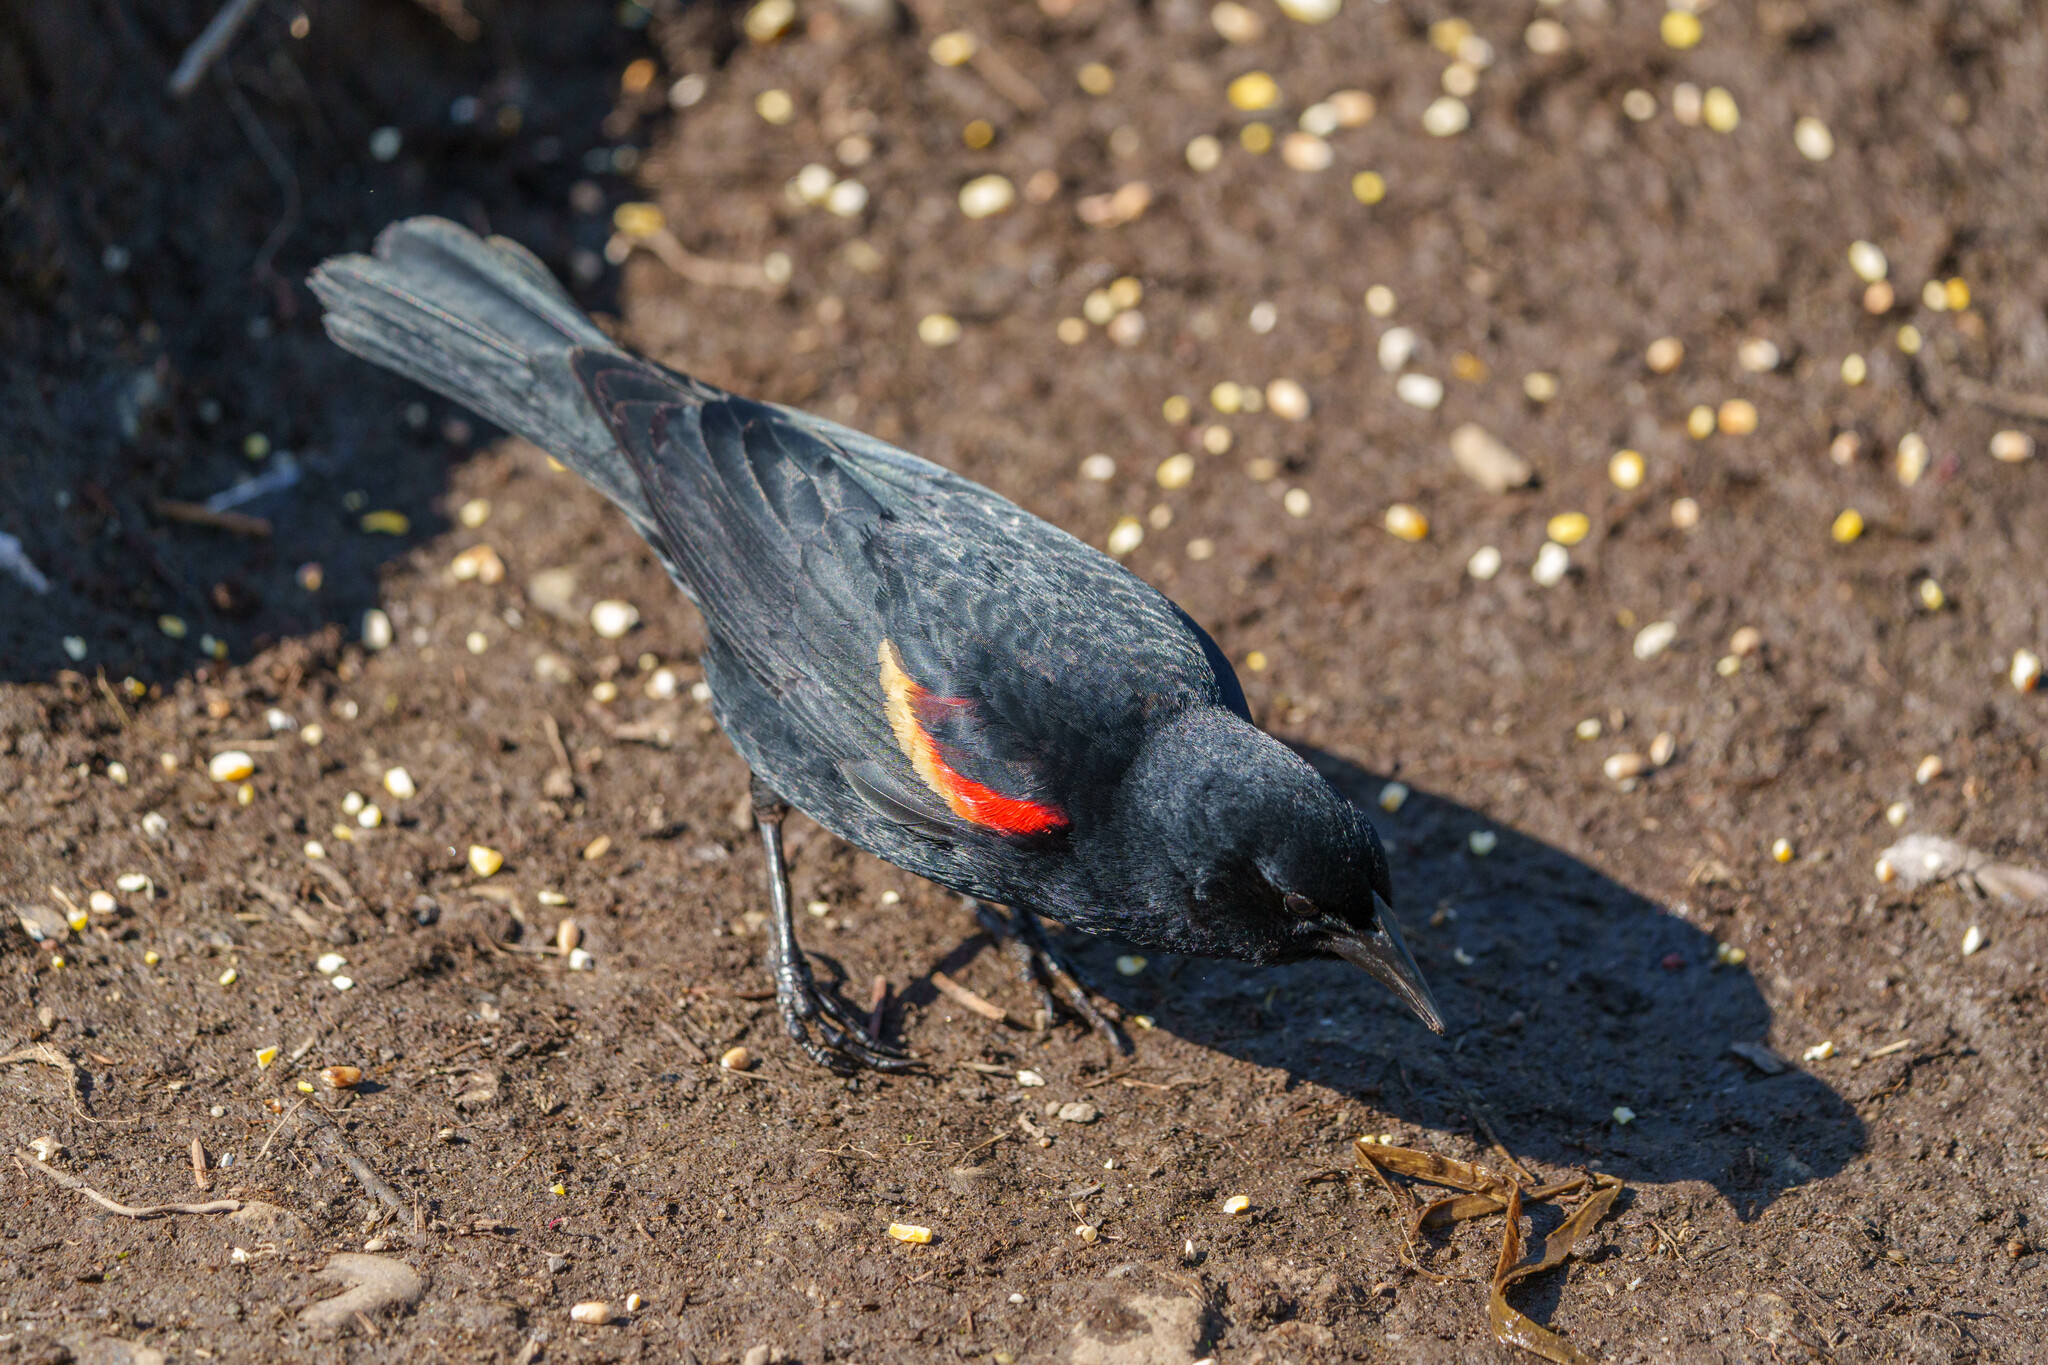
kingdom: Animalia
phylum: Chordata
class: Aves
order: Passeriformes
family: Icteridae
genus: Agelaius
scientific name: Agelaius phoeniceus
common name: Red-winged blackbird
